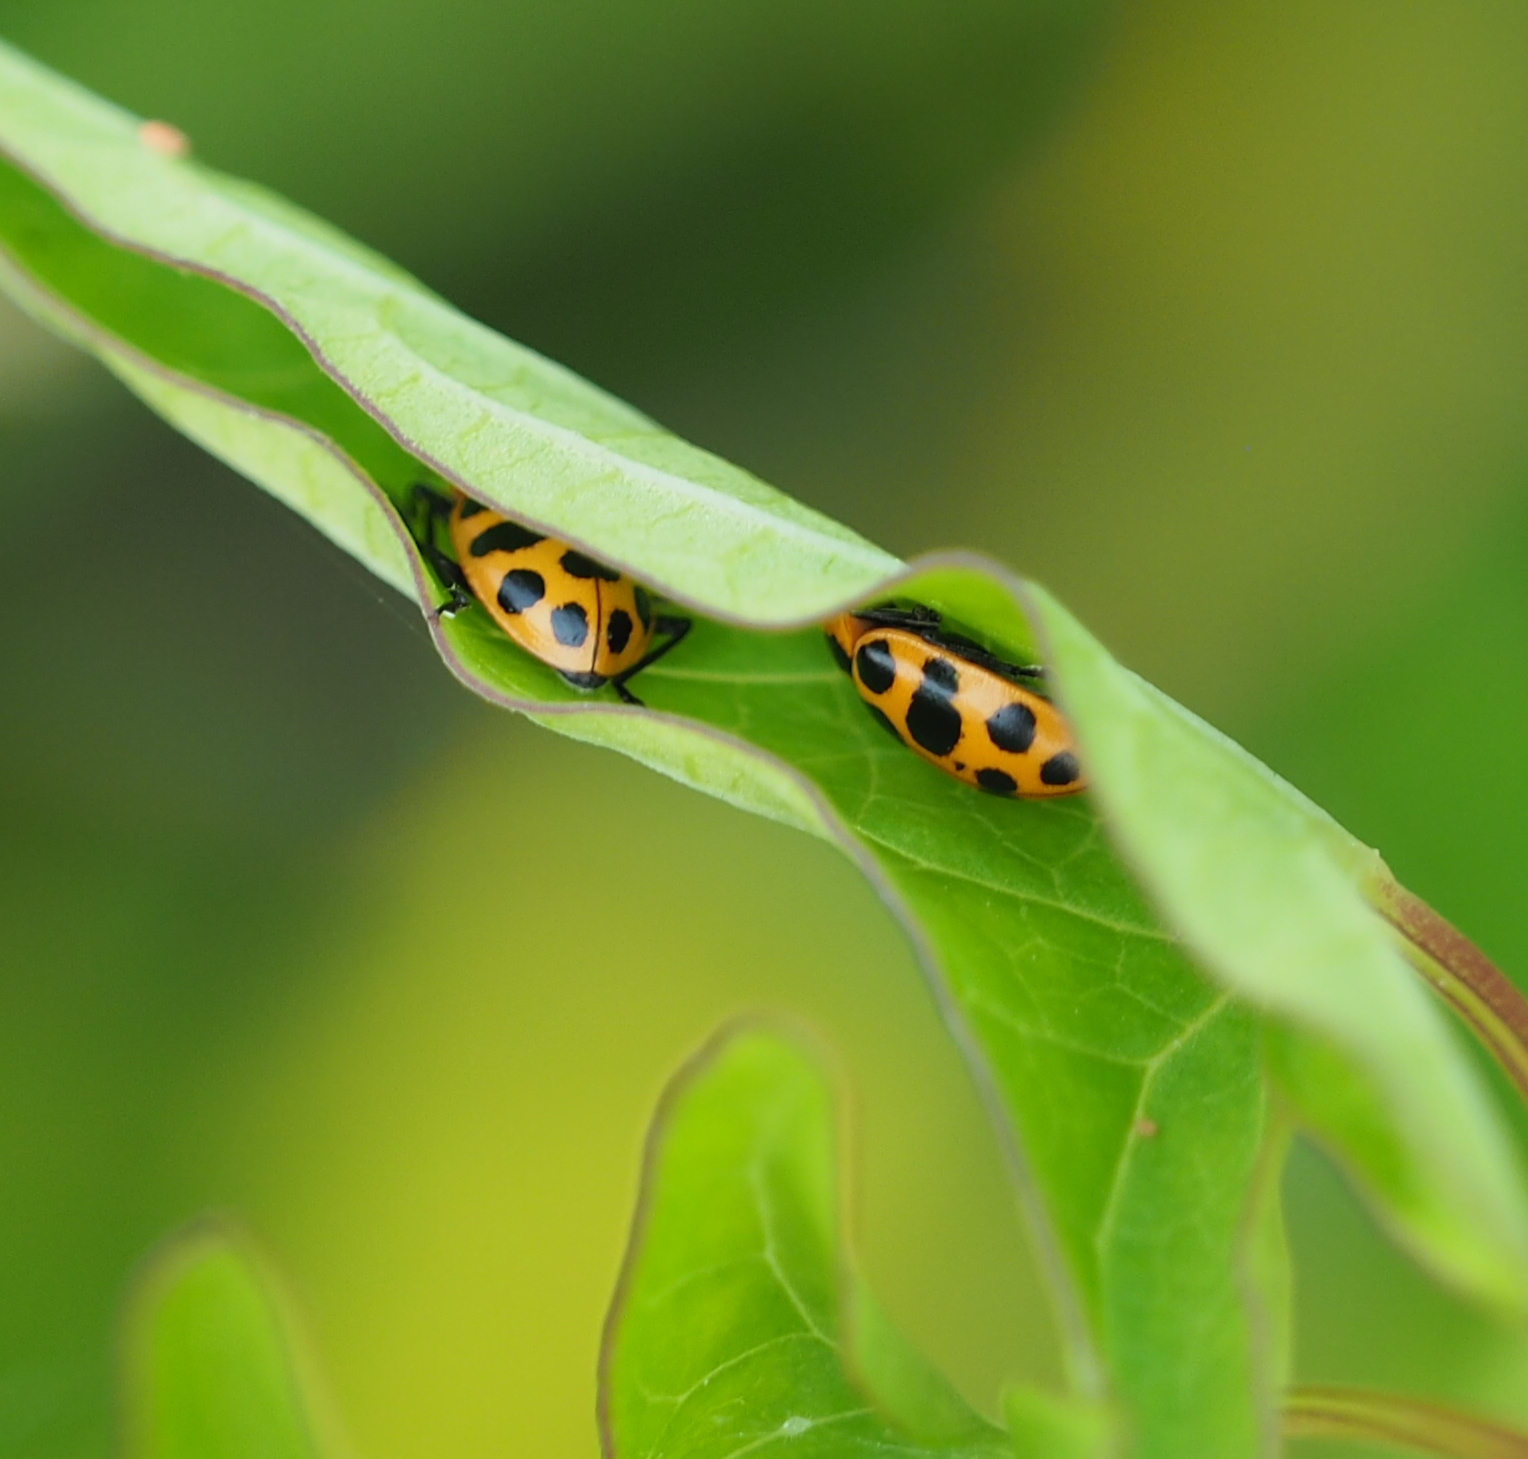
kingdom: Animalia
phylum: Arthropoda
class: Insecta
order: Coleoptera
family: Coccinellidae
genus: Coleomegilla
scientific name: Coleomegilla maculata
